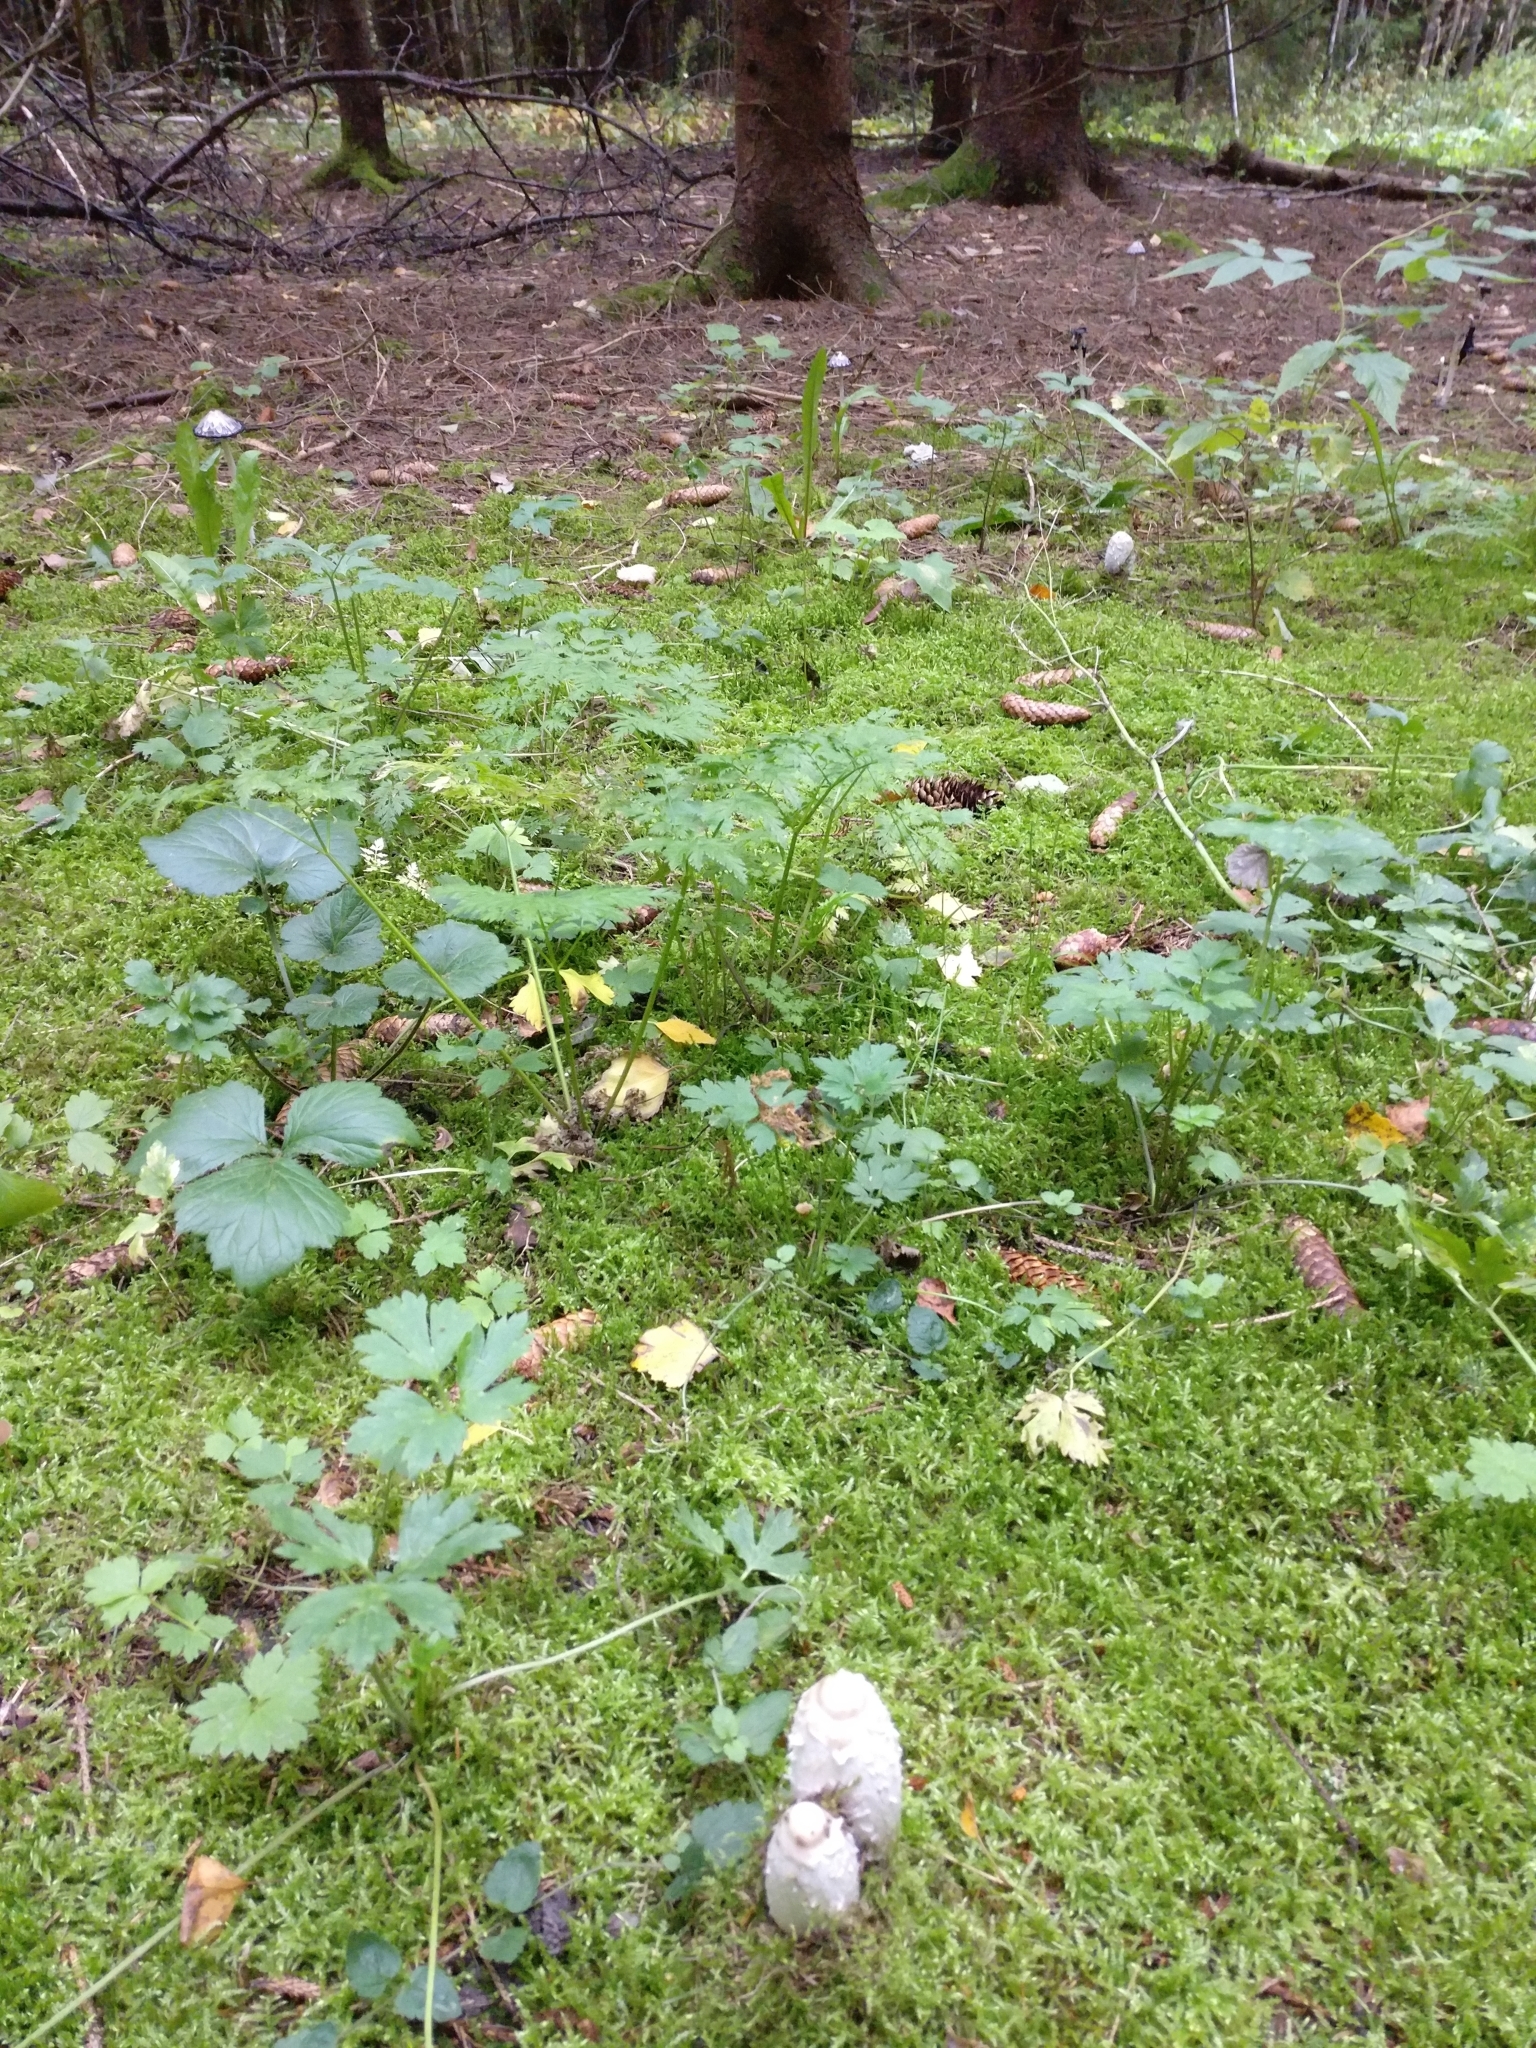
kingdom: Fungi
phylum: Basidiomycota
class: Agaricomycetes
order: Agaricales
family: Agaricaceae
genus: Coprinus
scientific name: Coprinus comatus
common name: Lawyer's wig
